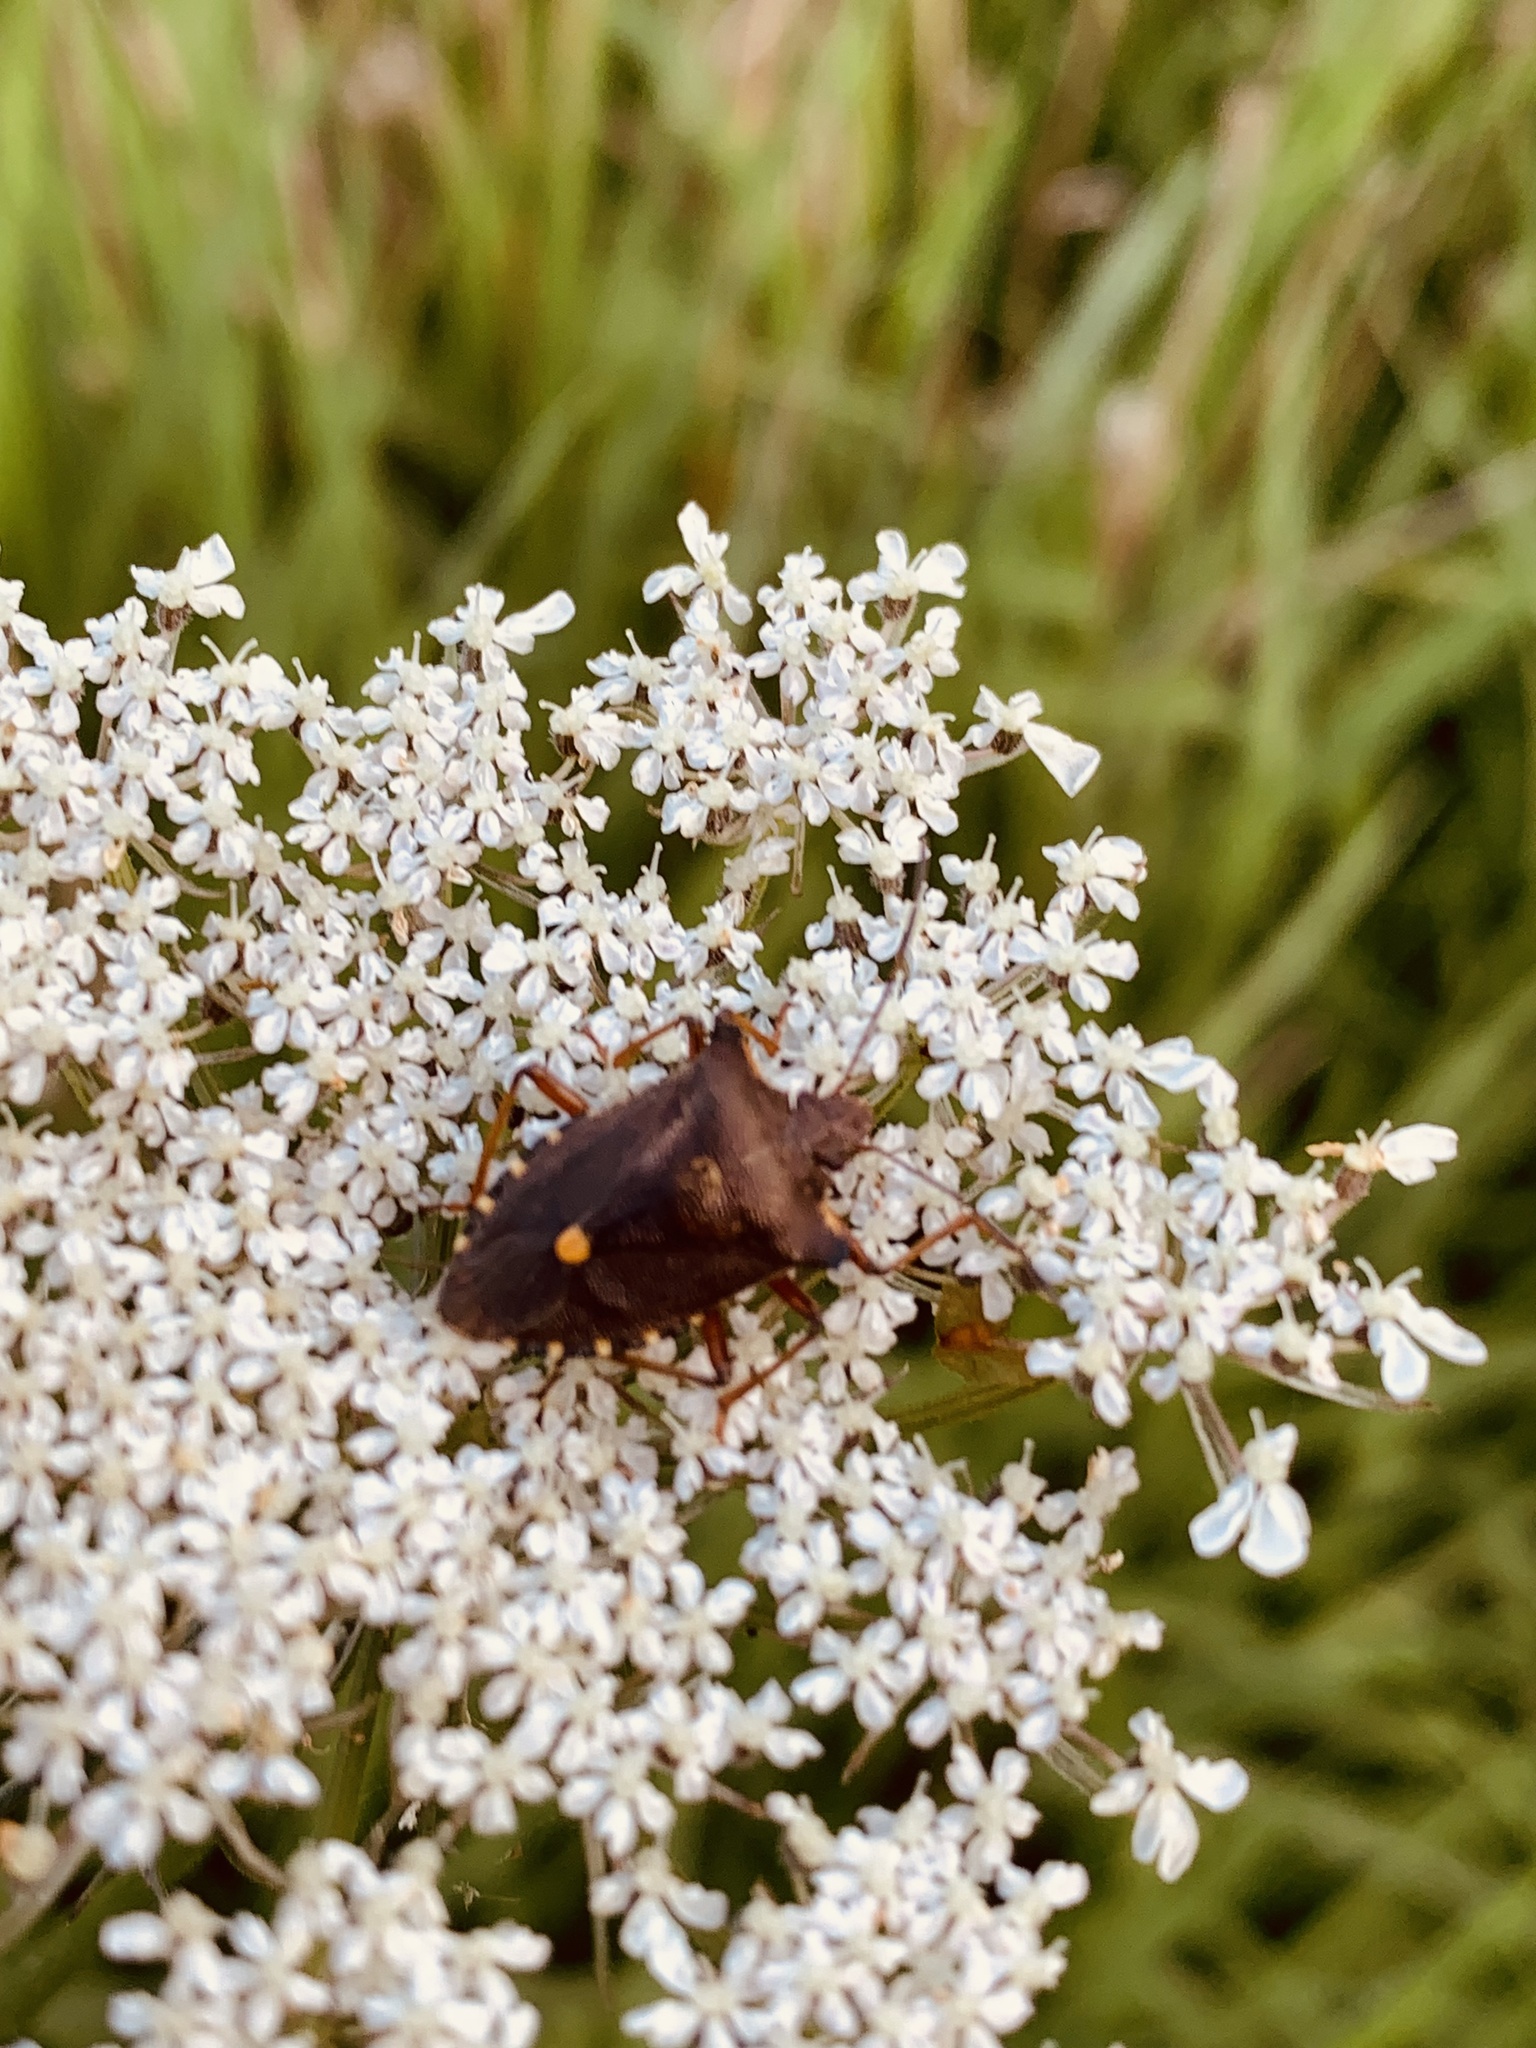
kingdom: Animalia
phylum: Arthropoda
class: Insecta
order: Hemiptera
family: Pentatomidae
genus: Pentatoma
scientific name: Pentatoma rufipes
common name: Forest bug
